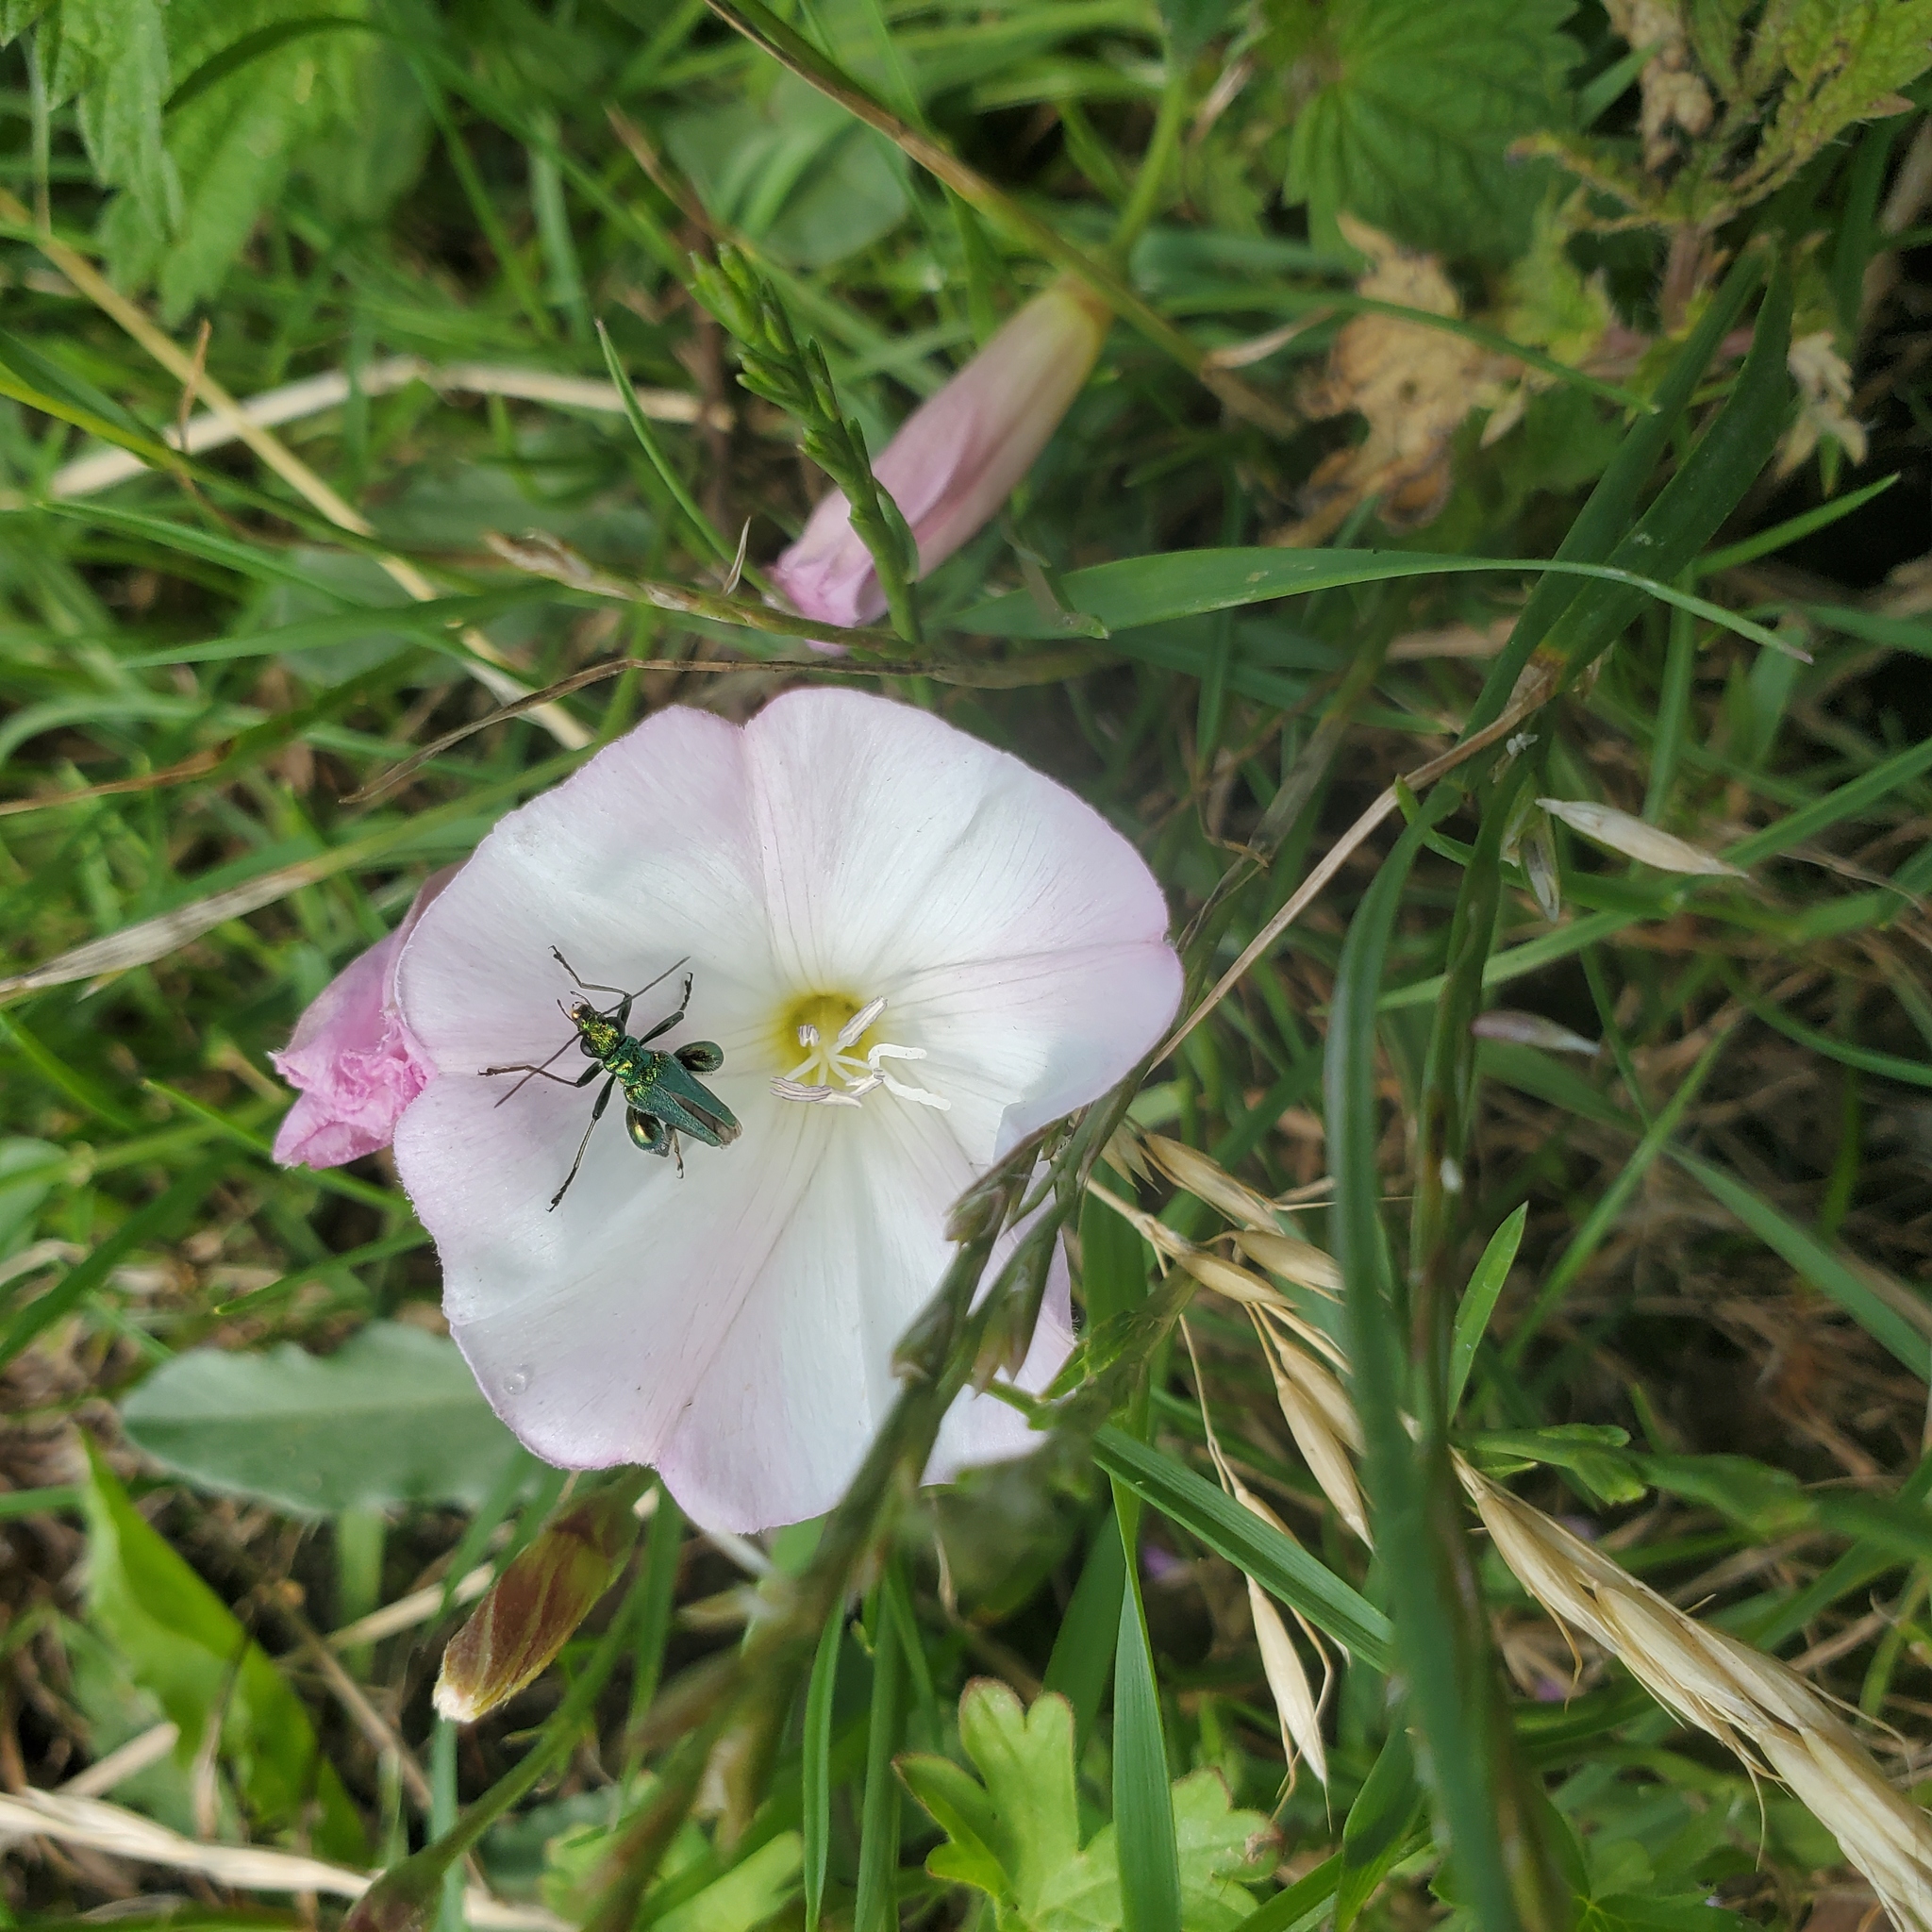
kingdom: Animalia
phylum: Arthropoda
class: Insecta
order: Coleoptera
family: Oedemeridae
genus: Oedemera
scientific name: Oedemera nobilis
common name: Swollen-thighed beetle
